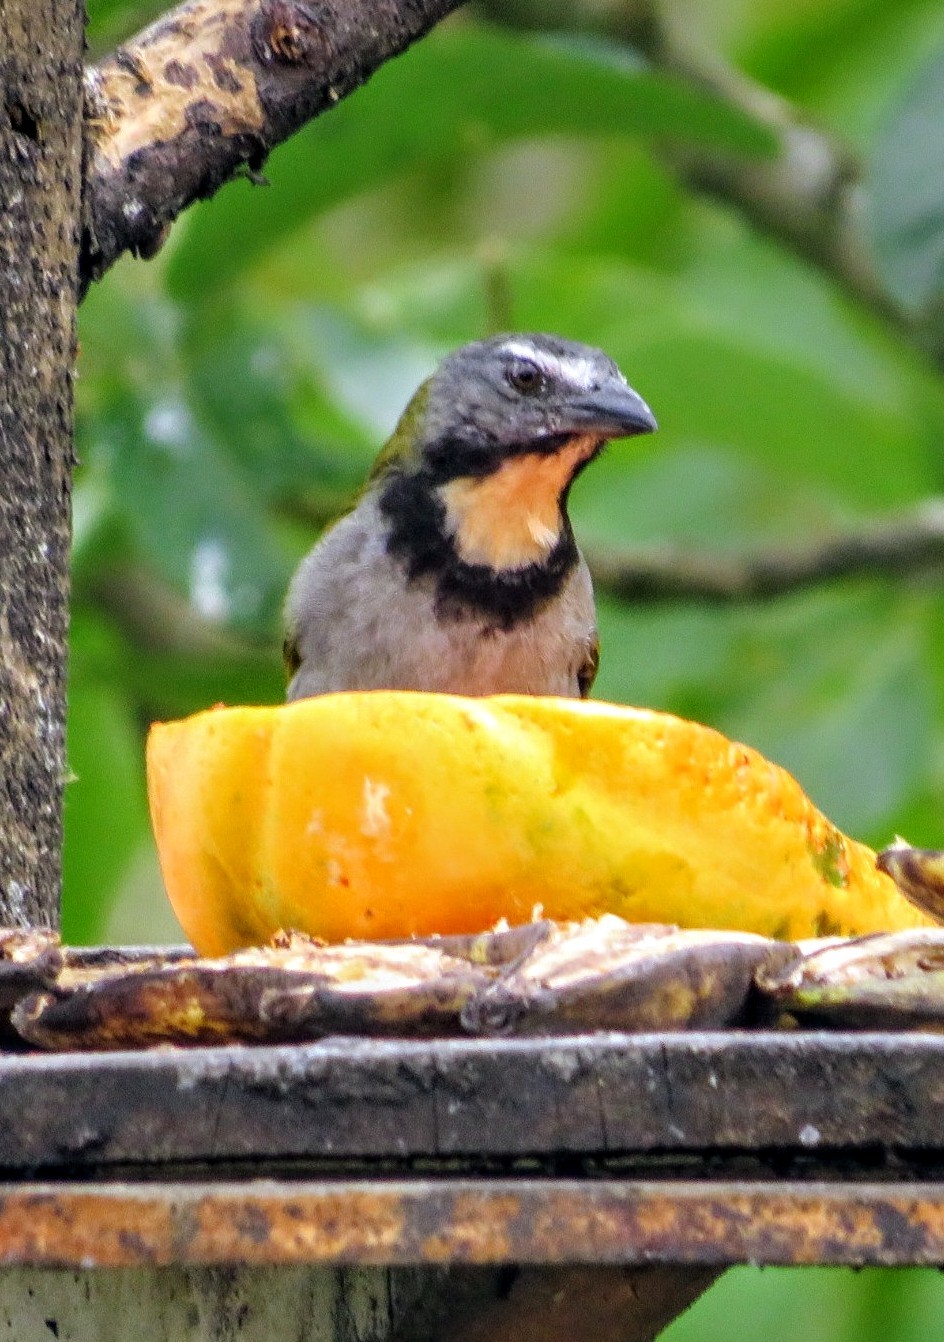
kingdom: Animalia
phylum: Chordata
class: Aves
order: Passeriformes
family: Thraupidae
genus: Saltator
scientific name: Saltator maximus
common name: Buff-throated saltator
